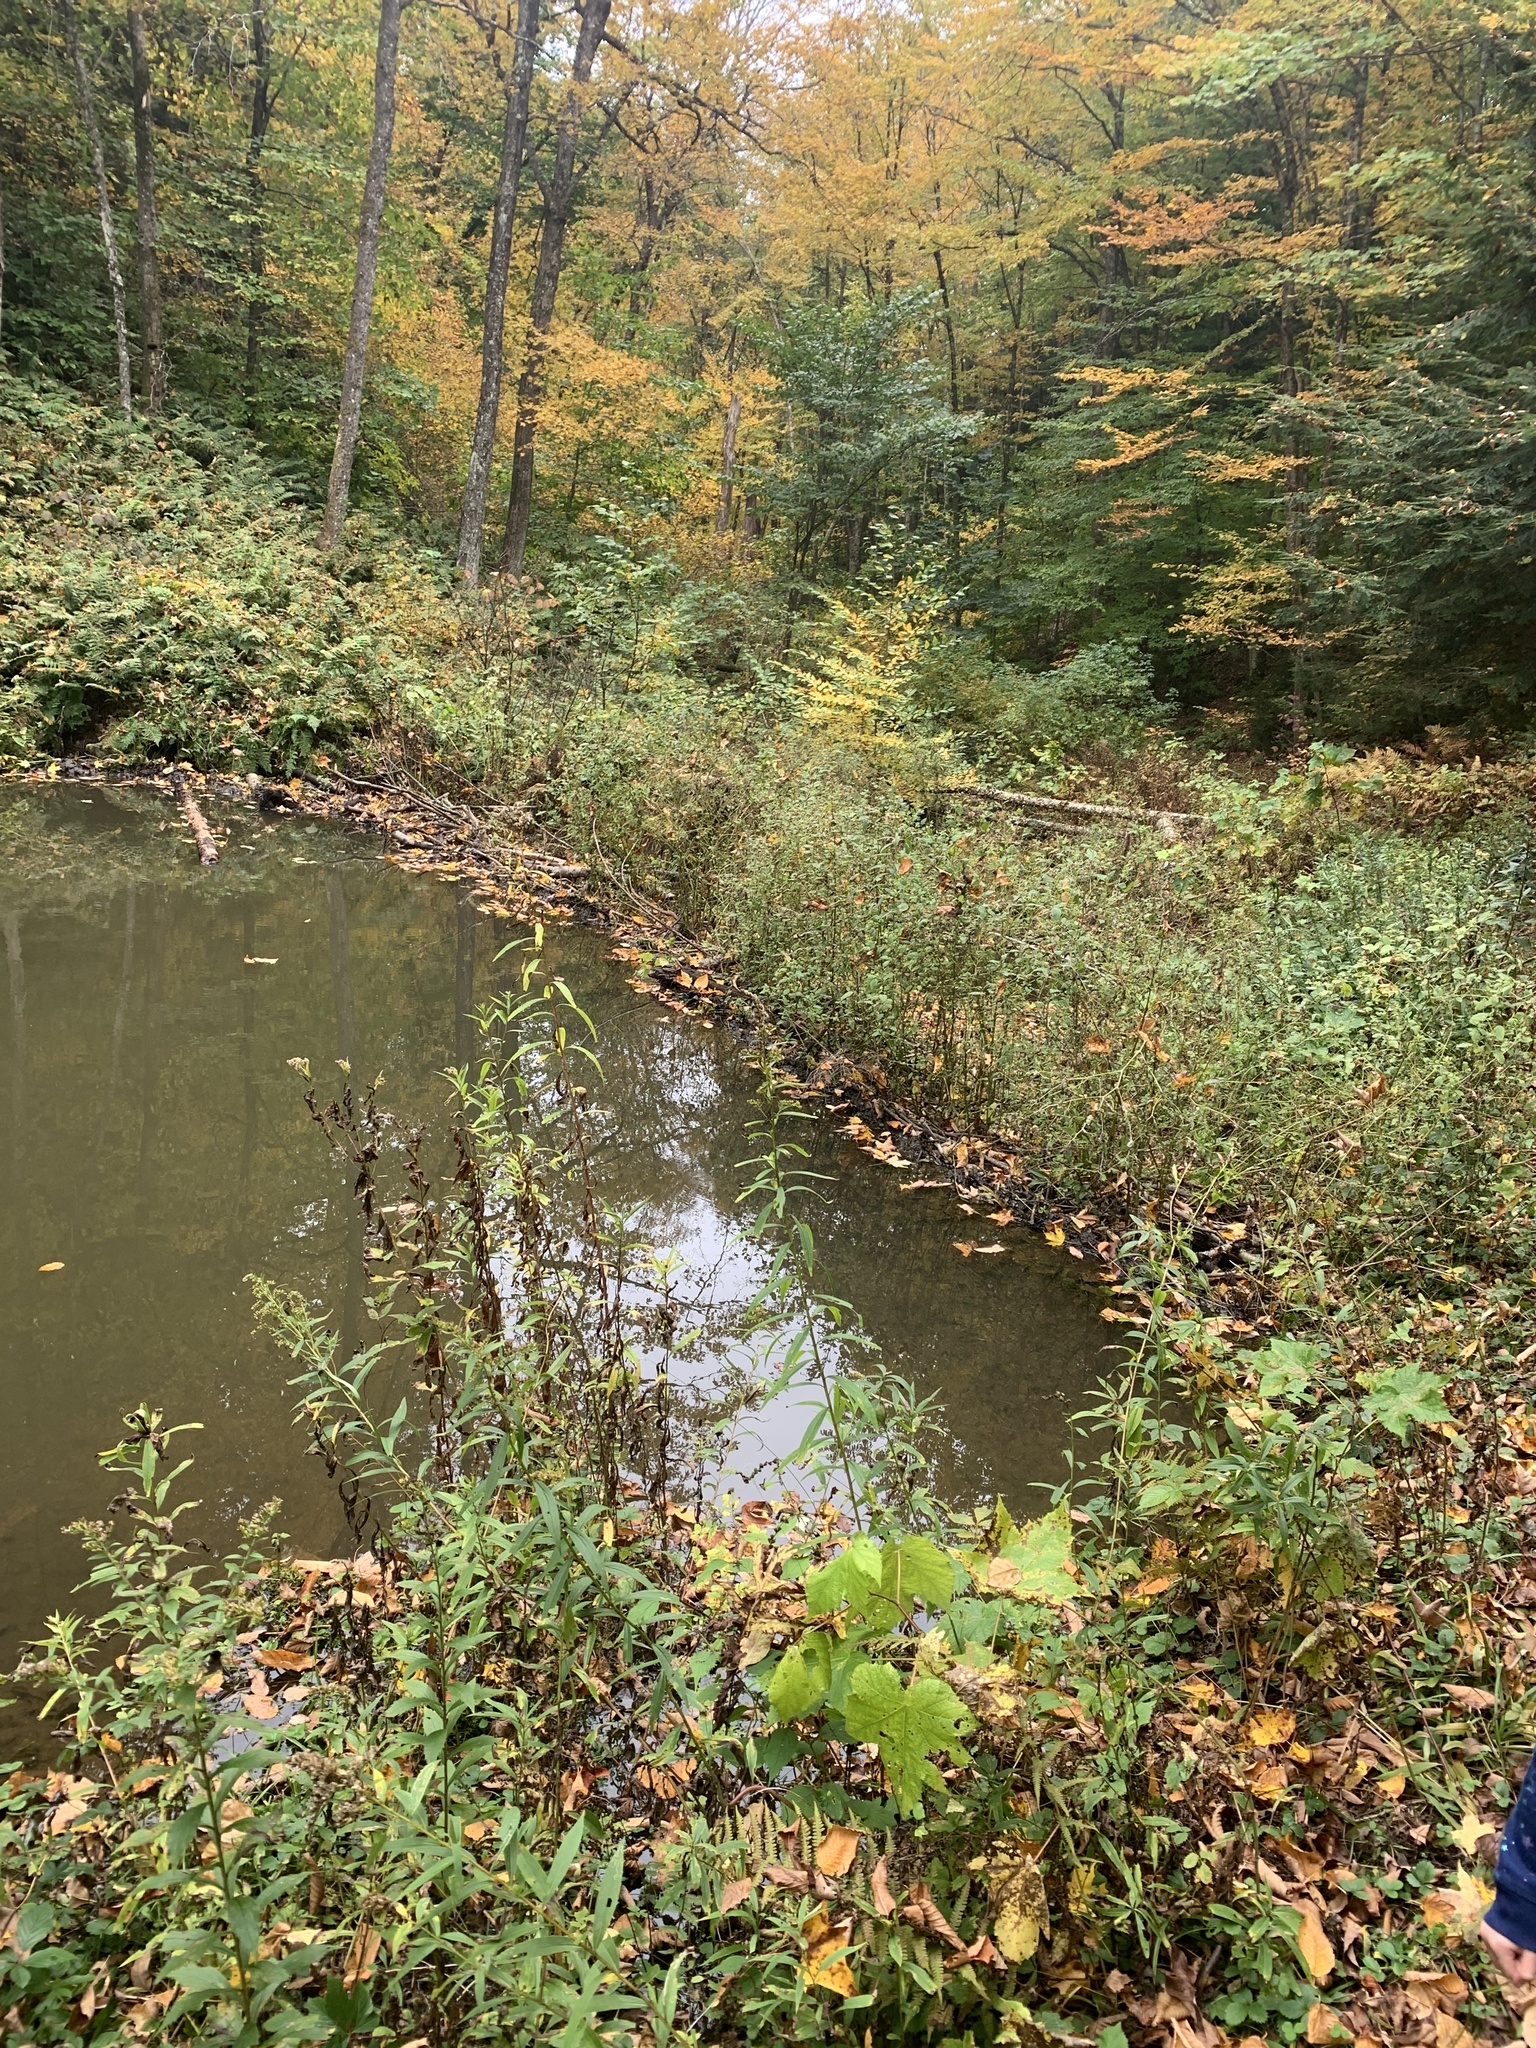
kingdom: Animalia
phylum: Chordata
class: Mammalia
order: Rodentia
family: Castoridae
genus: Castor
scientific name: Castor canadensis
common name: American beaver
